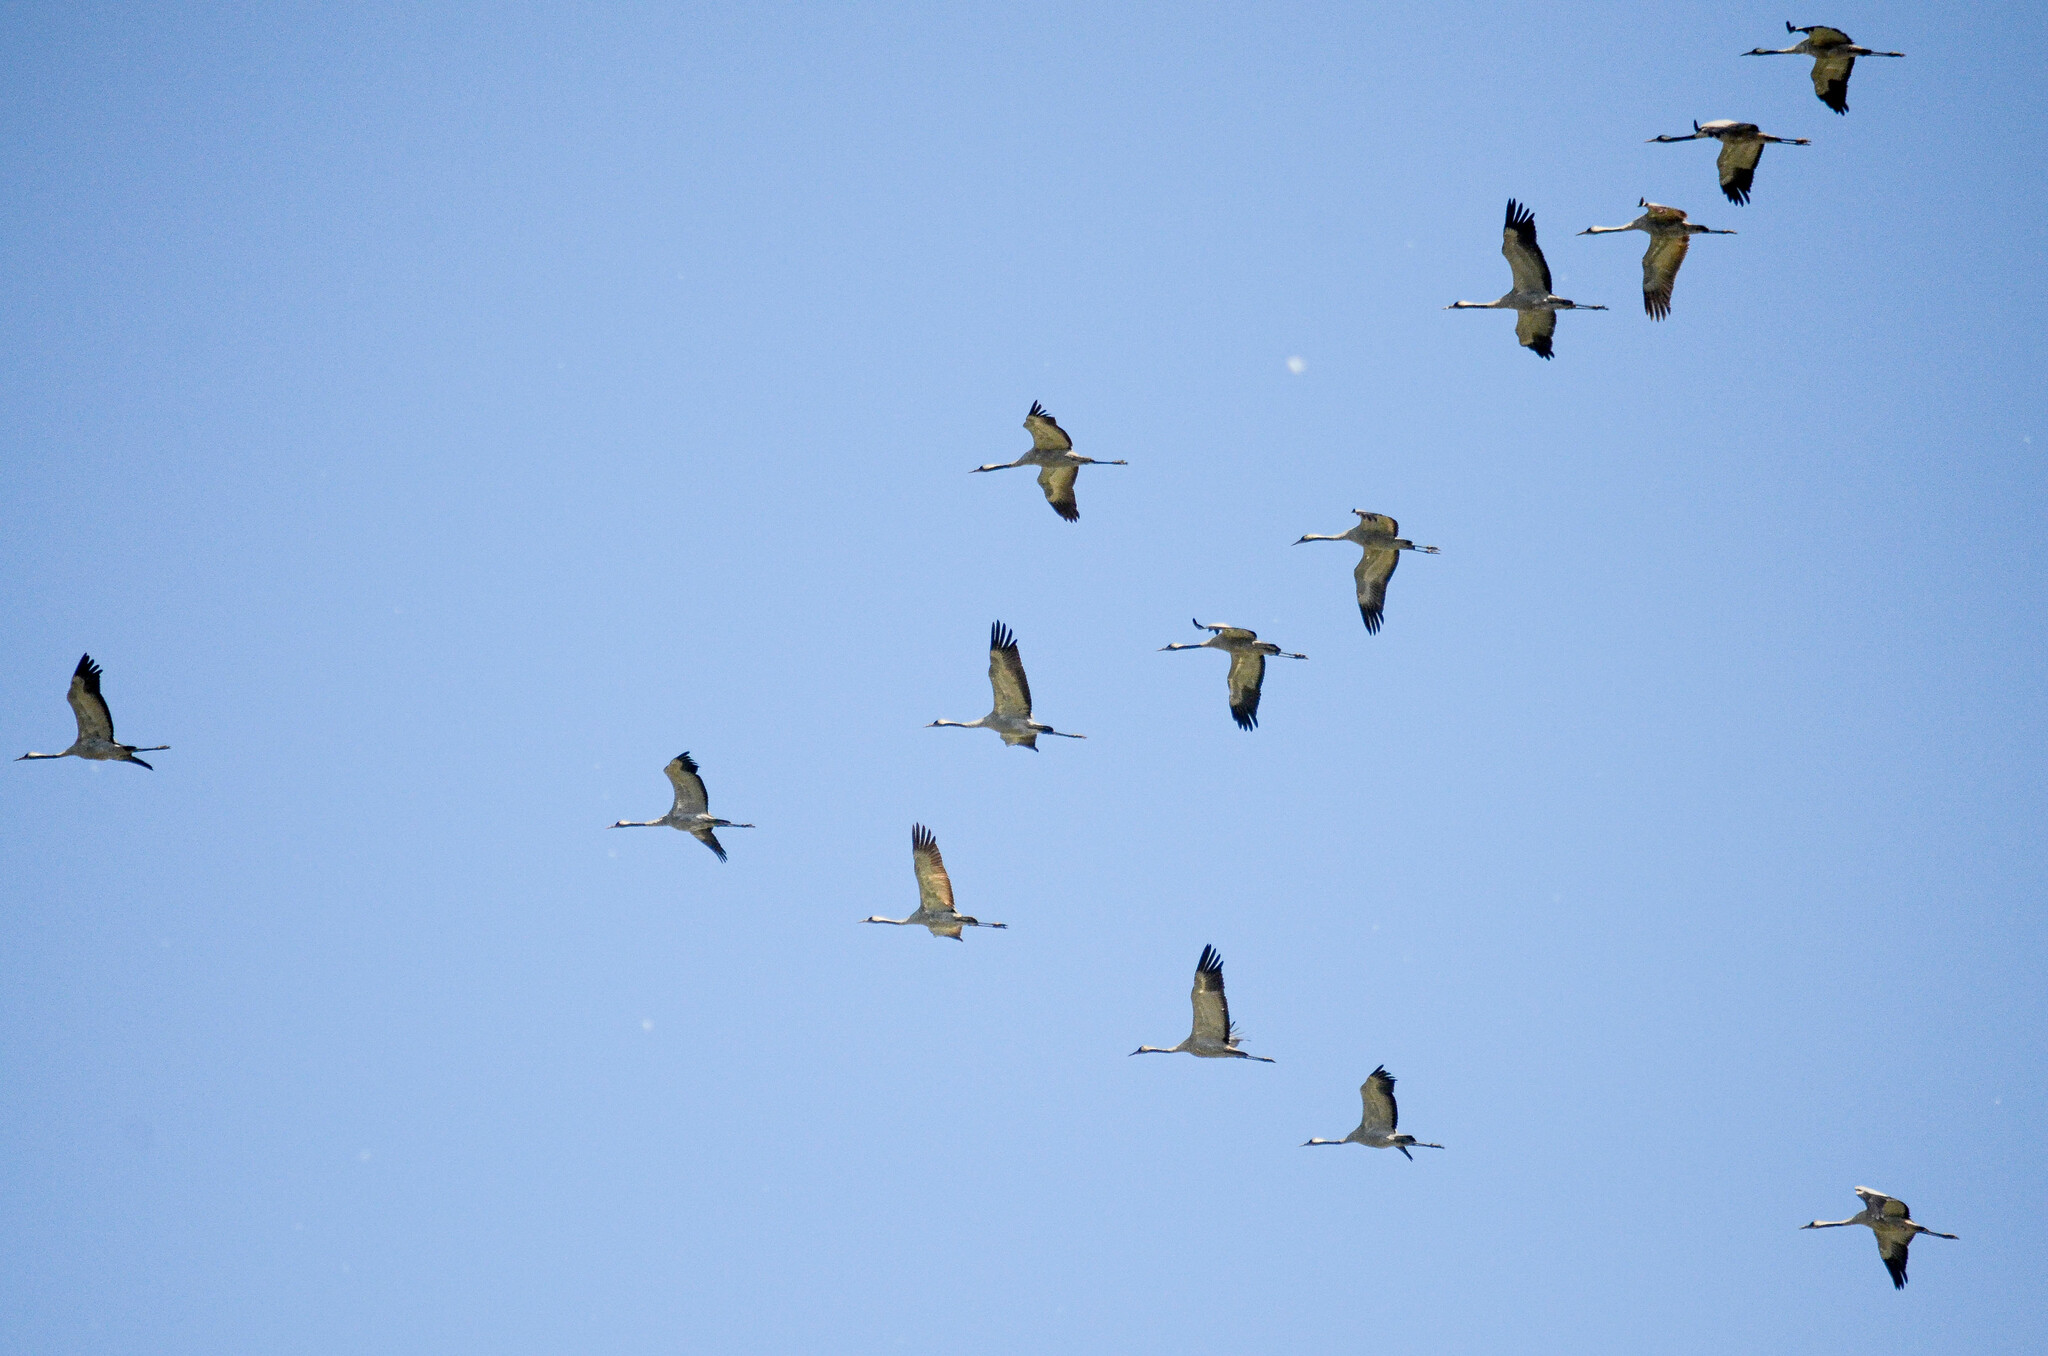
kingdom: Animalia
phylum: Chordata
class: Aves
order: Gruiformes
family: Gruidae
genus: Grus
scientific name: Grus grus
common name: Common crane
